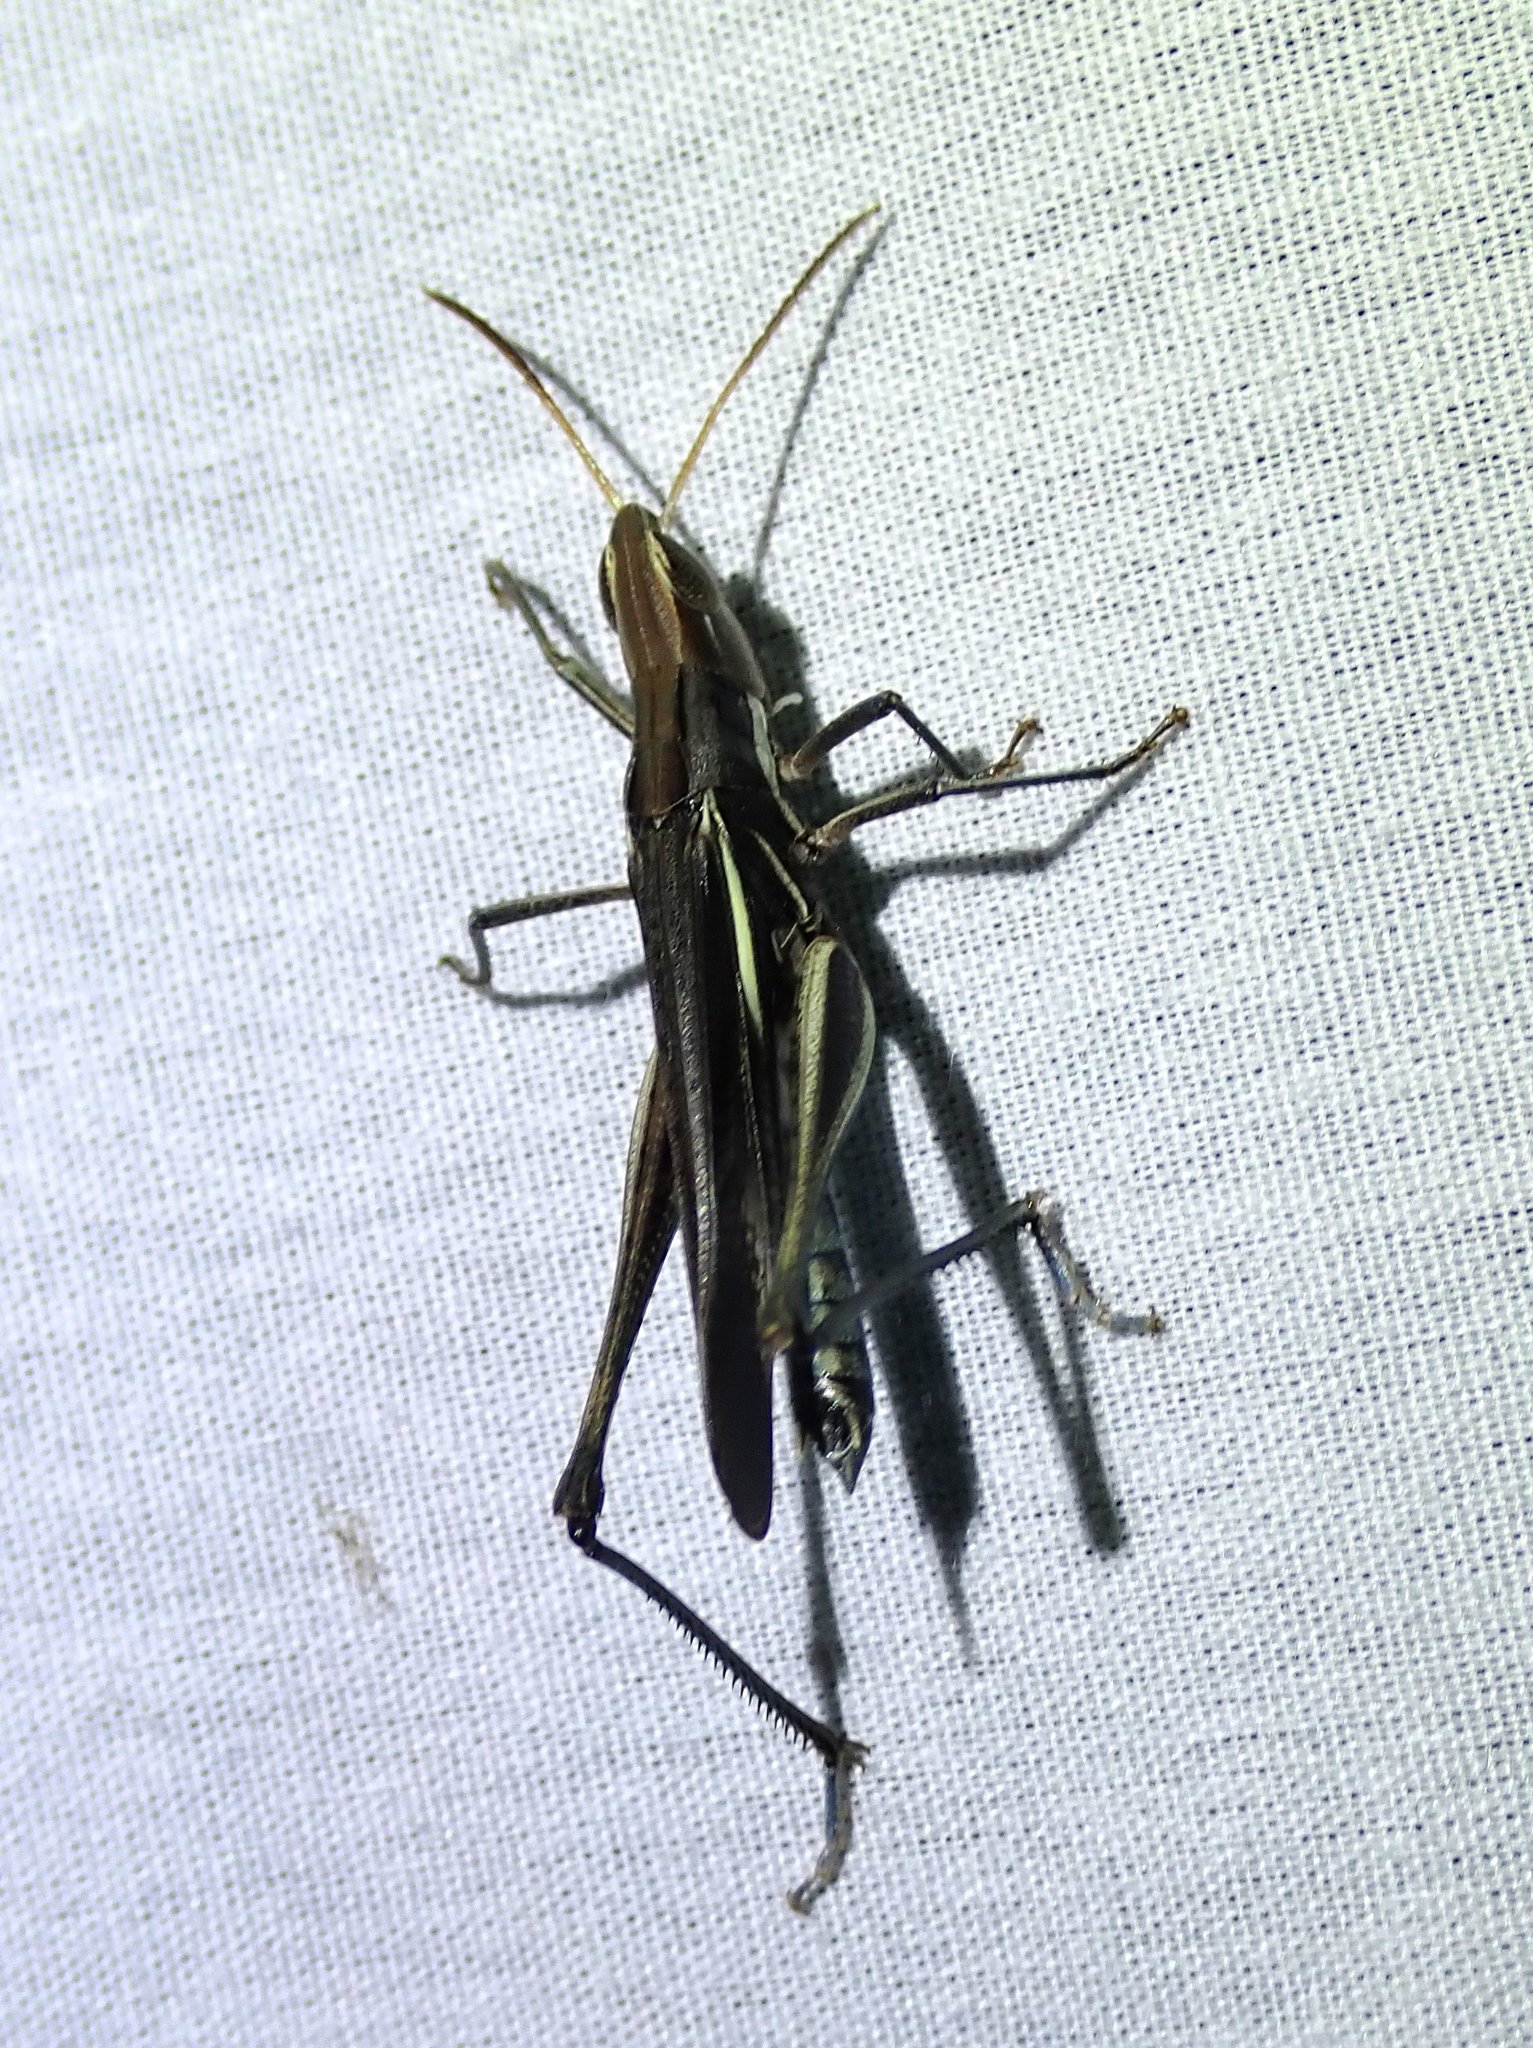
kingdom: Animalia
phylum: Arthropoda
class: Insecta
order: Orthoptera
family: Acrididae
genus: Syrbula
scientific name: Syrbula montezuma
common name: Montezuma's grasshopper
